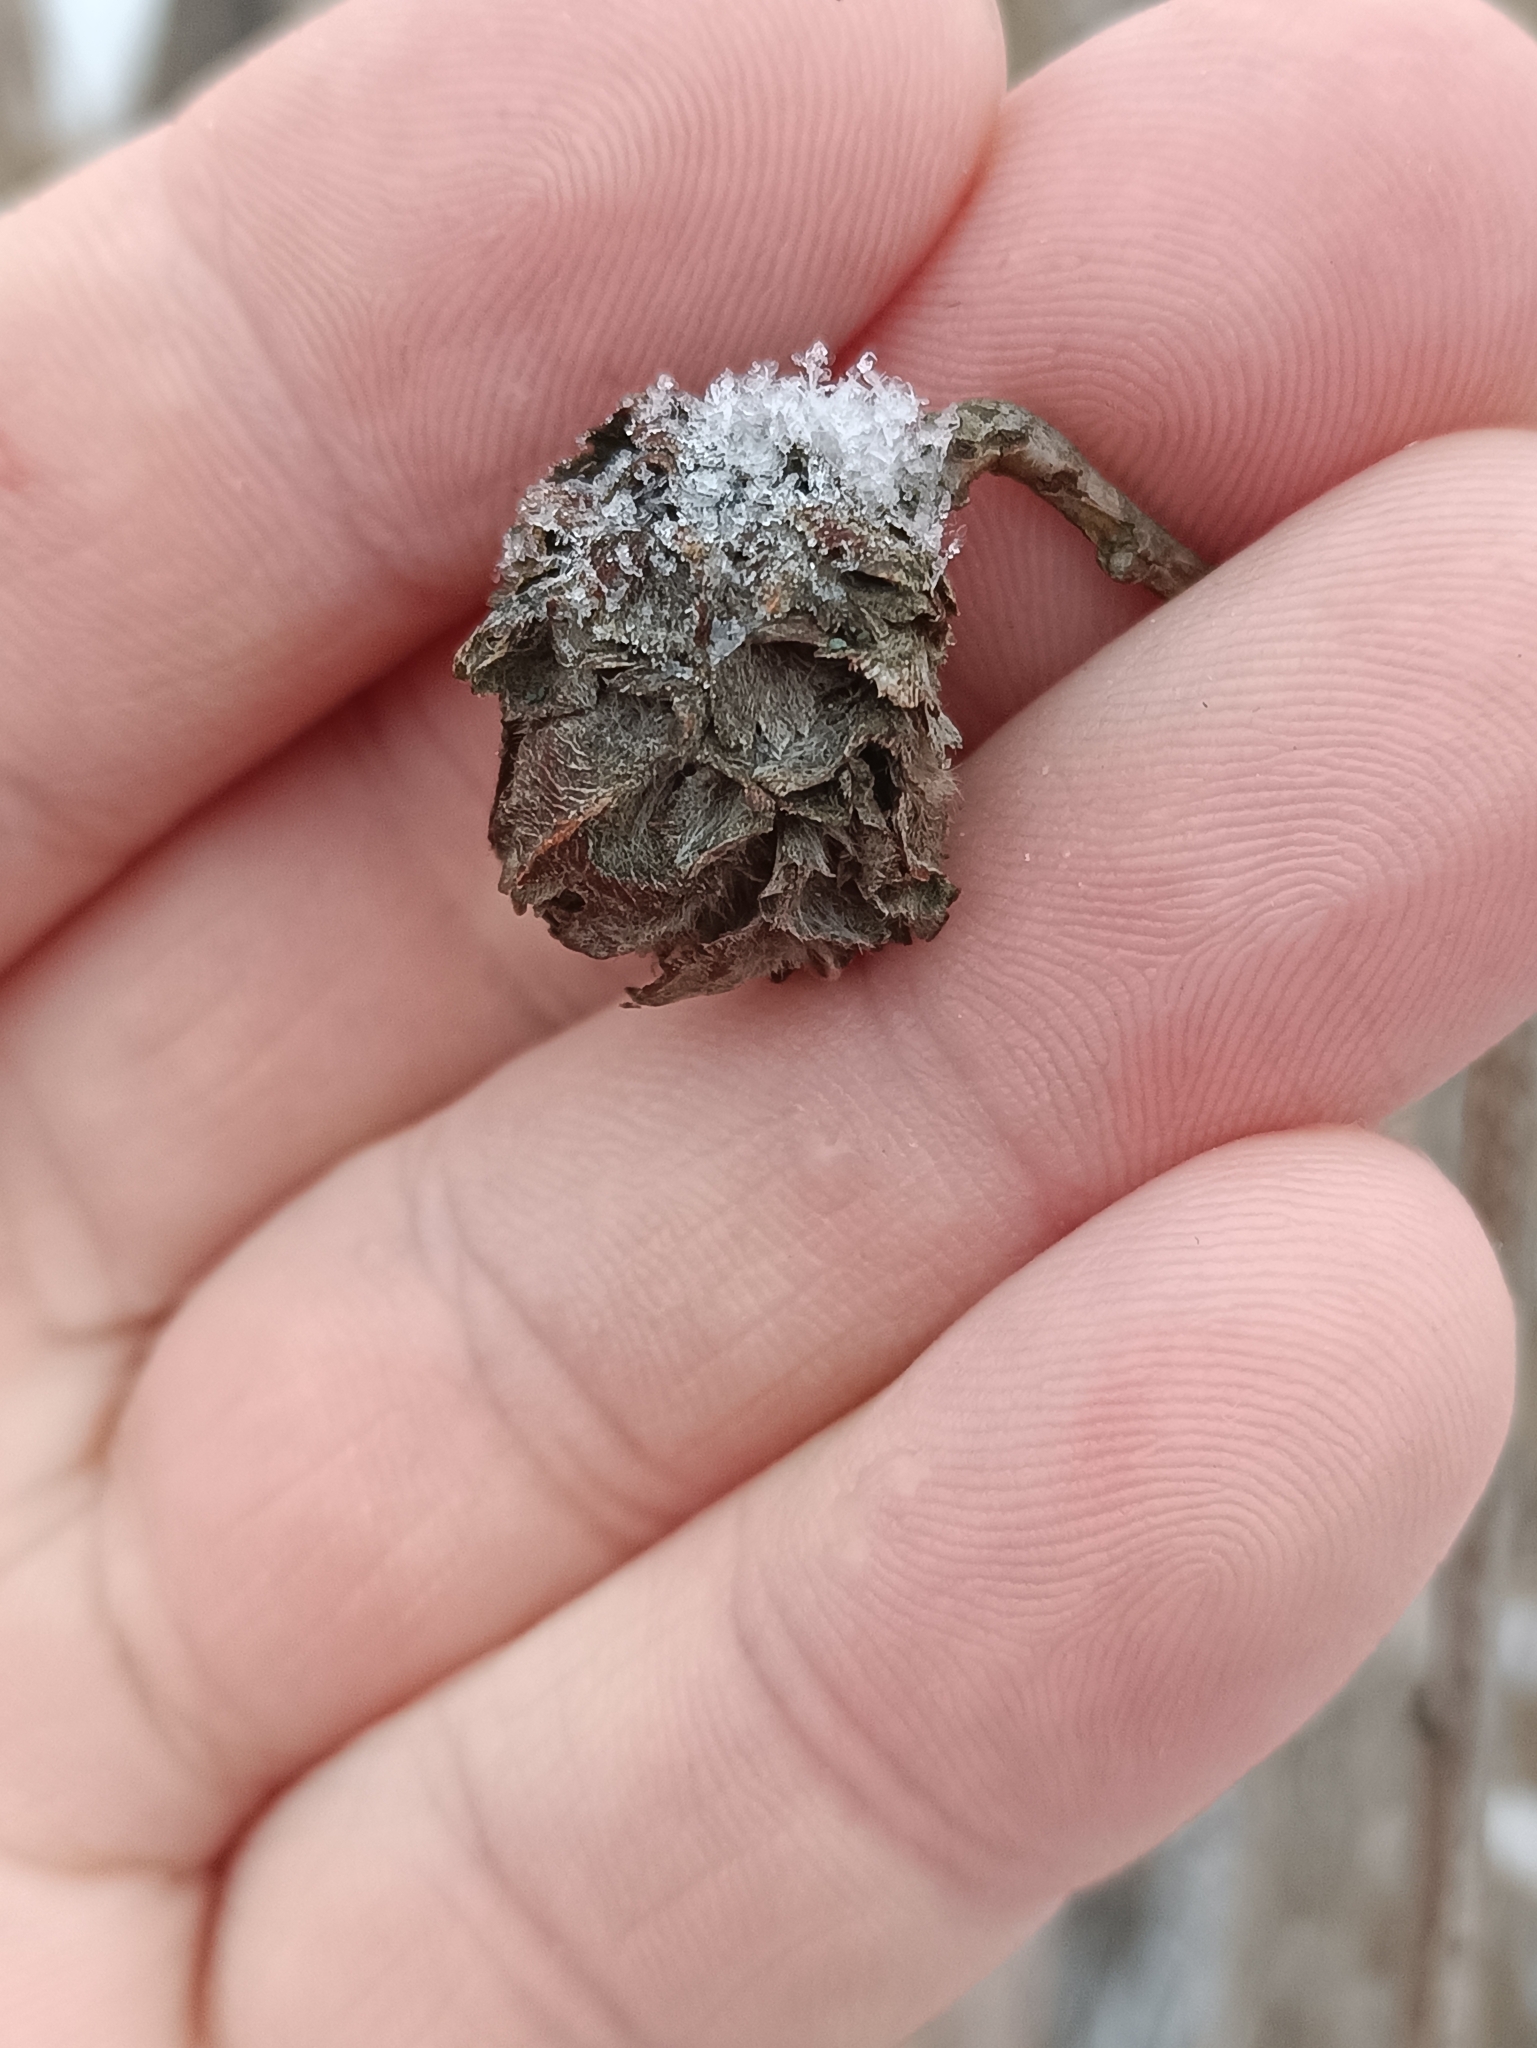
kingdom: Animalia
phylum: Arthropoda
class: Insecta
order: Diptera
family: Cecidomyiidae
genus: Rabdophaga
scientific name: Rabdophaga rosaria
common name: Willow rose gall midge
